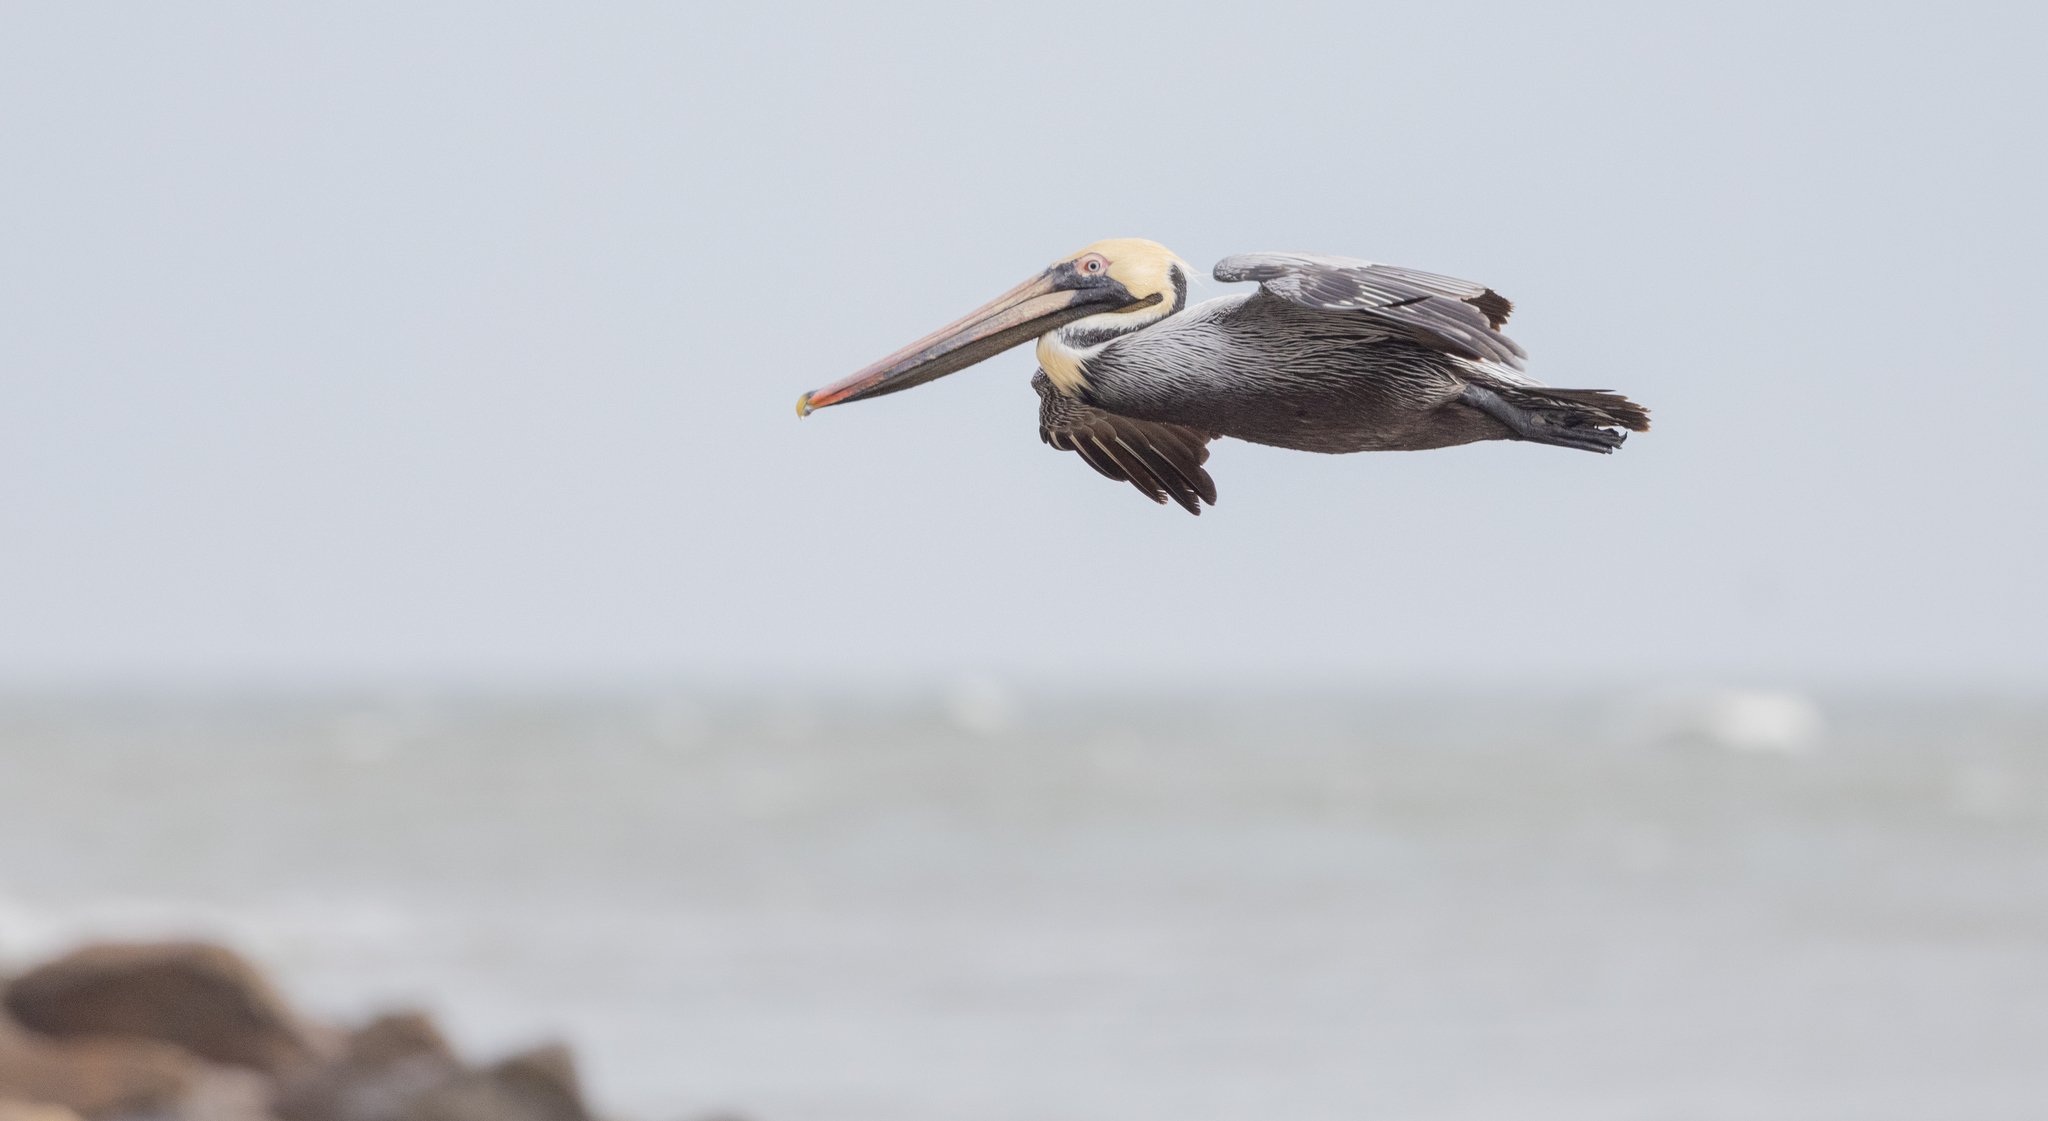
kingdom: Animalia
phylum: Chordata
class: Aves
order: Pelecaniformes
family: Pelecanidae
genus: Pelecanus
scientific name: Pelecanus occidentalis
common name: Brown pelican
